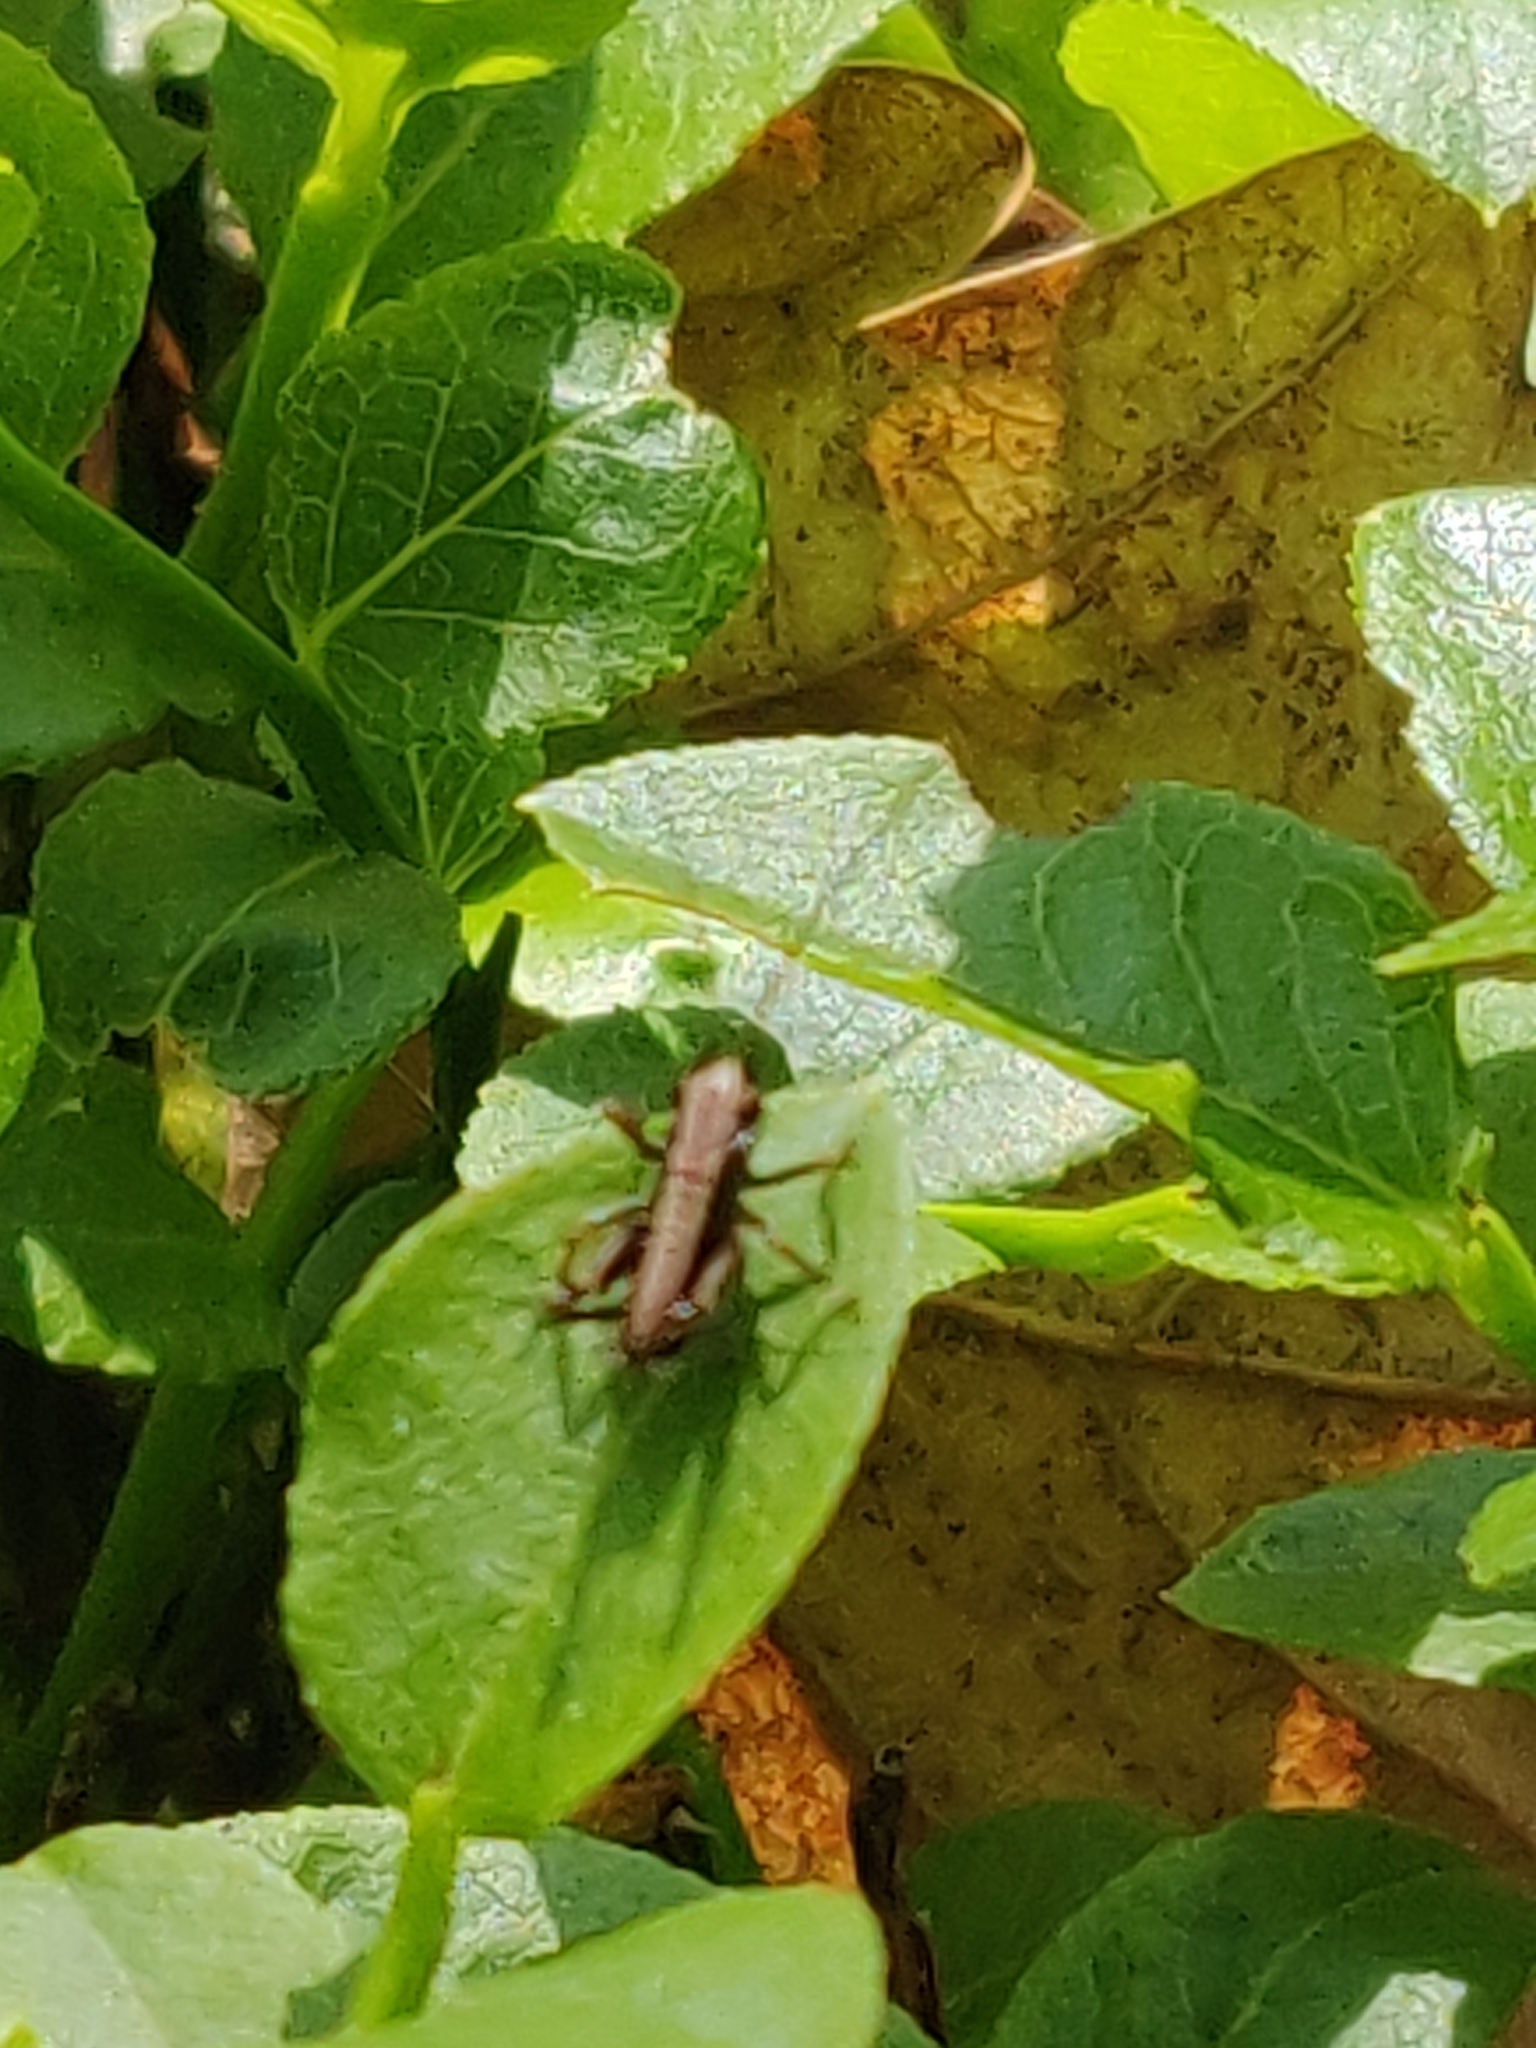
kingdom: Animalia
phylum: Arthropoda
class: Insecta
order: Orthoptera
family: Tettigoniidae
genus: Pholidoptera
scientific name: Pholidoptera griseoaptera
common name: Dark bush-cricket
